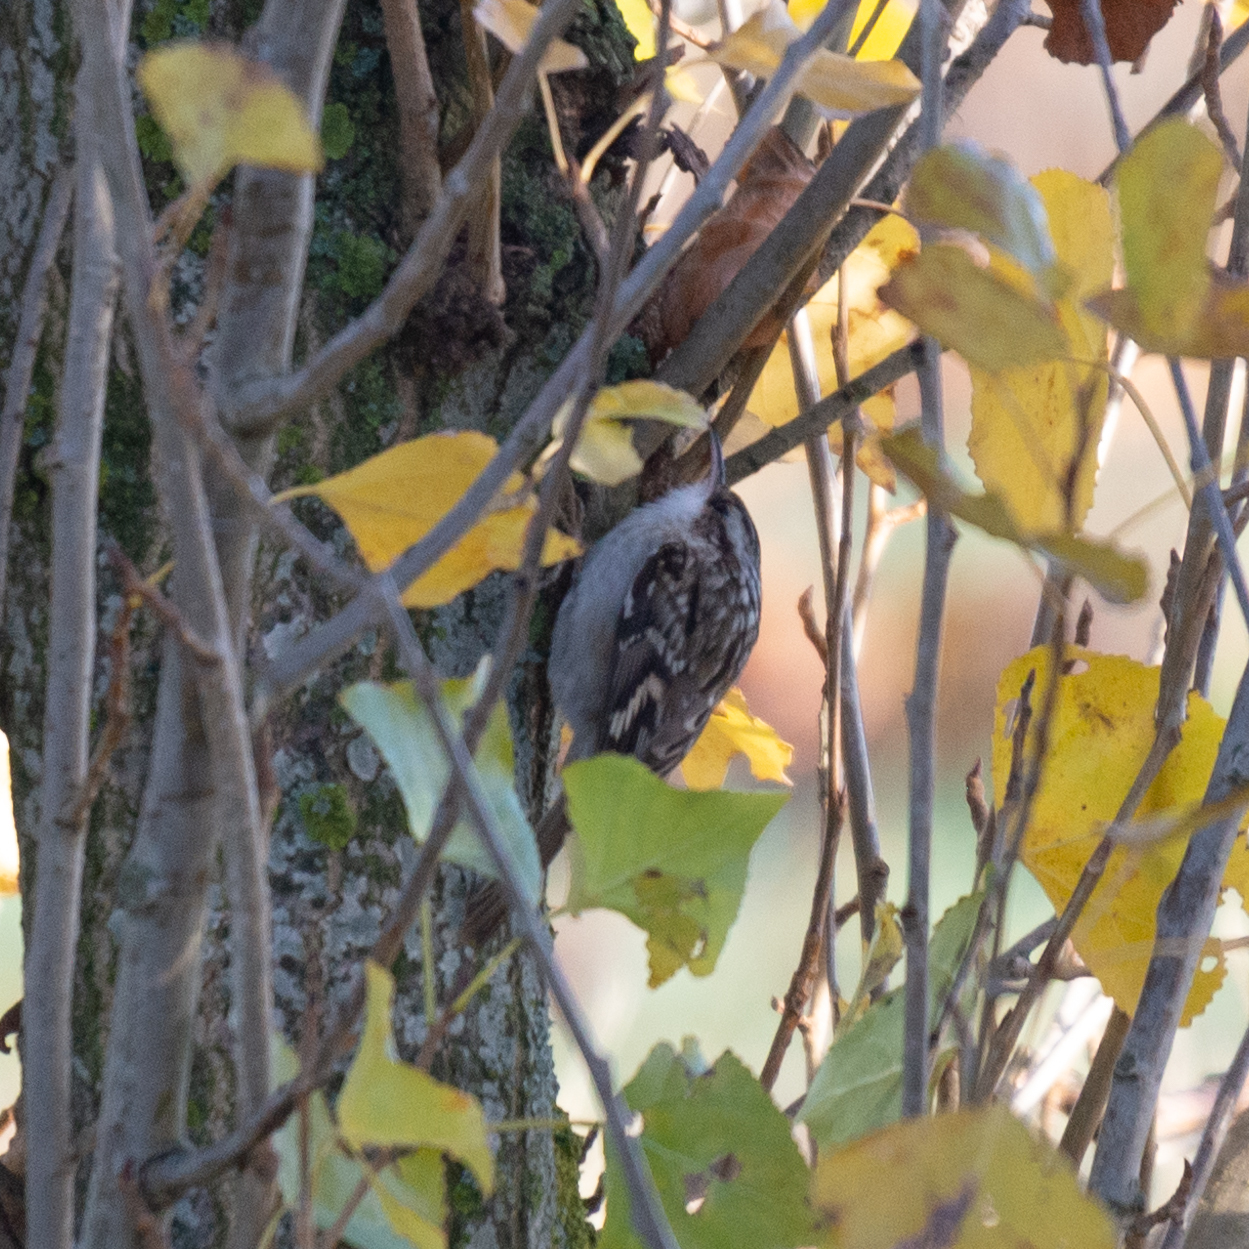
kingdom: Animalia
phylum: Chordata
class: Aves
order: Passeriformes
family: Certhiidae
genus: Certhia
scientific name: Certhia brachydactyla
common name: Short-toed treecreeper
